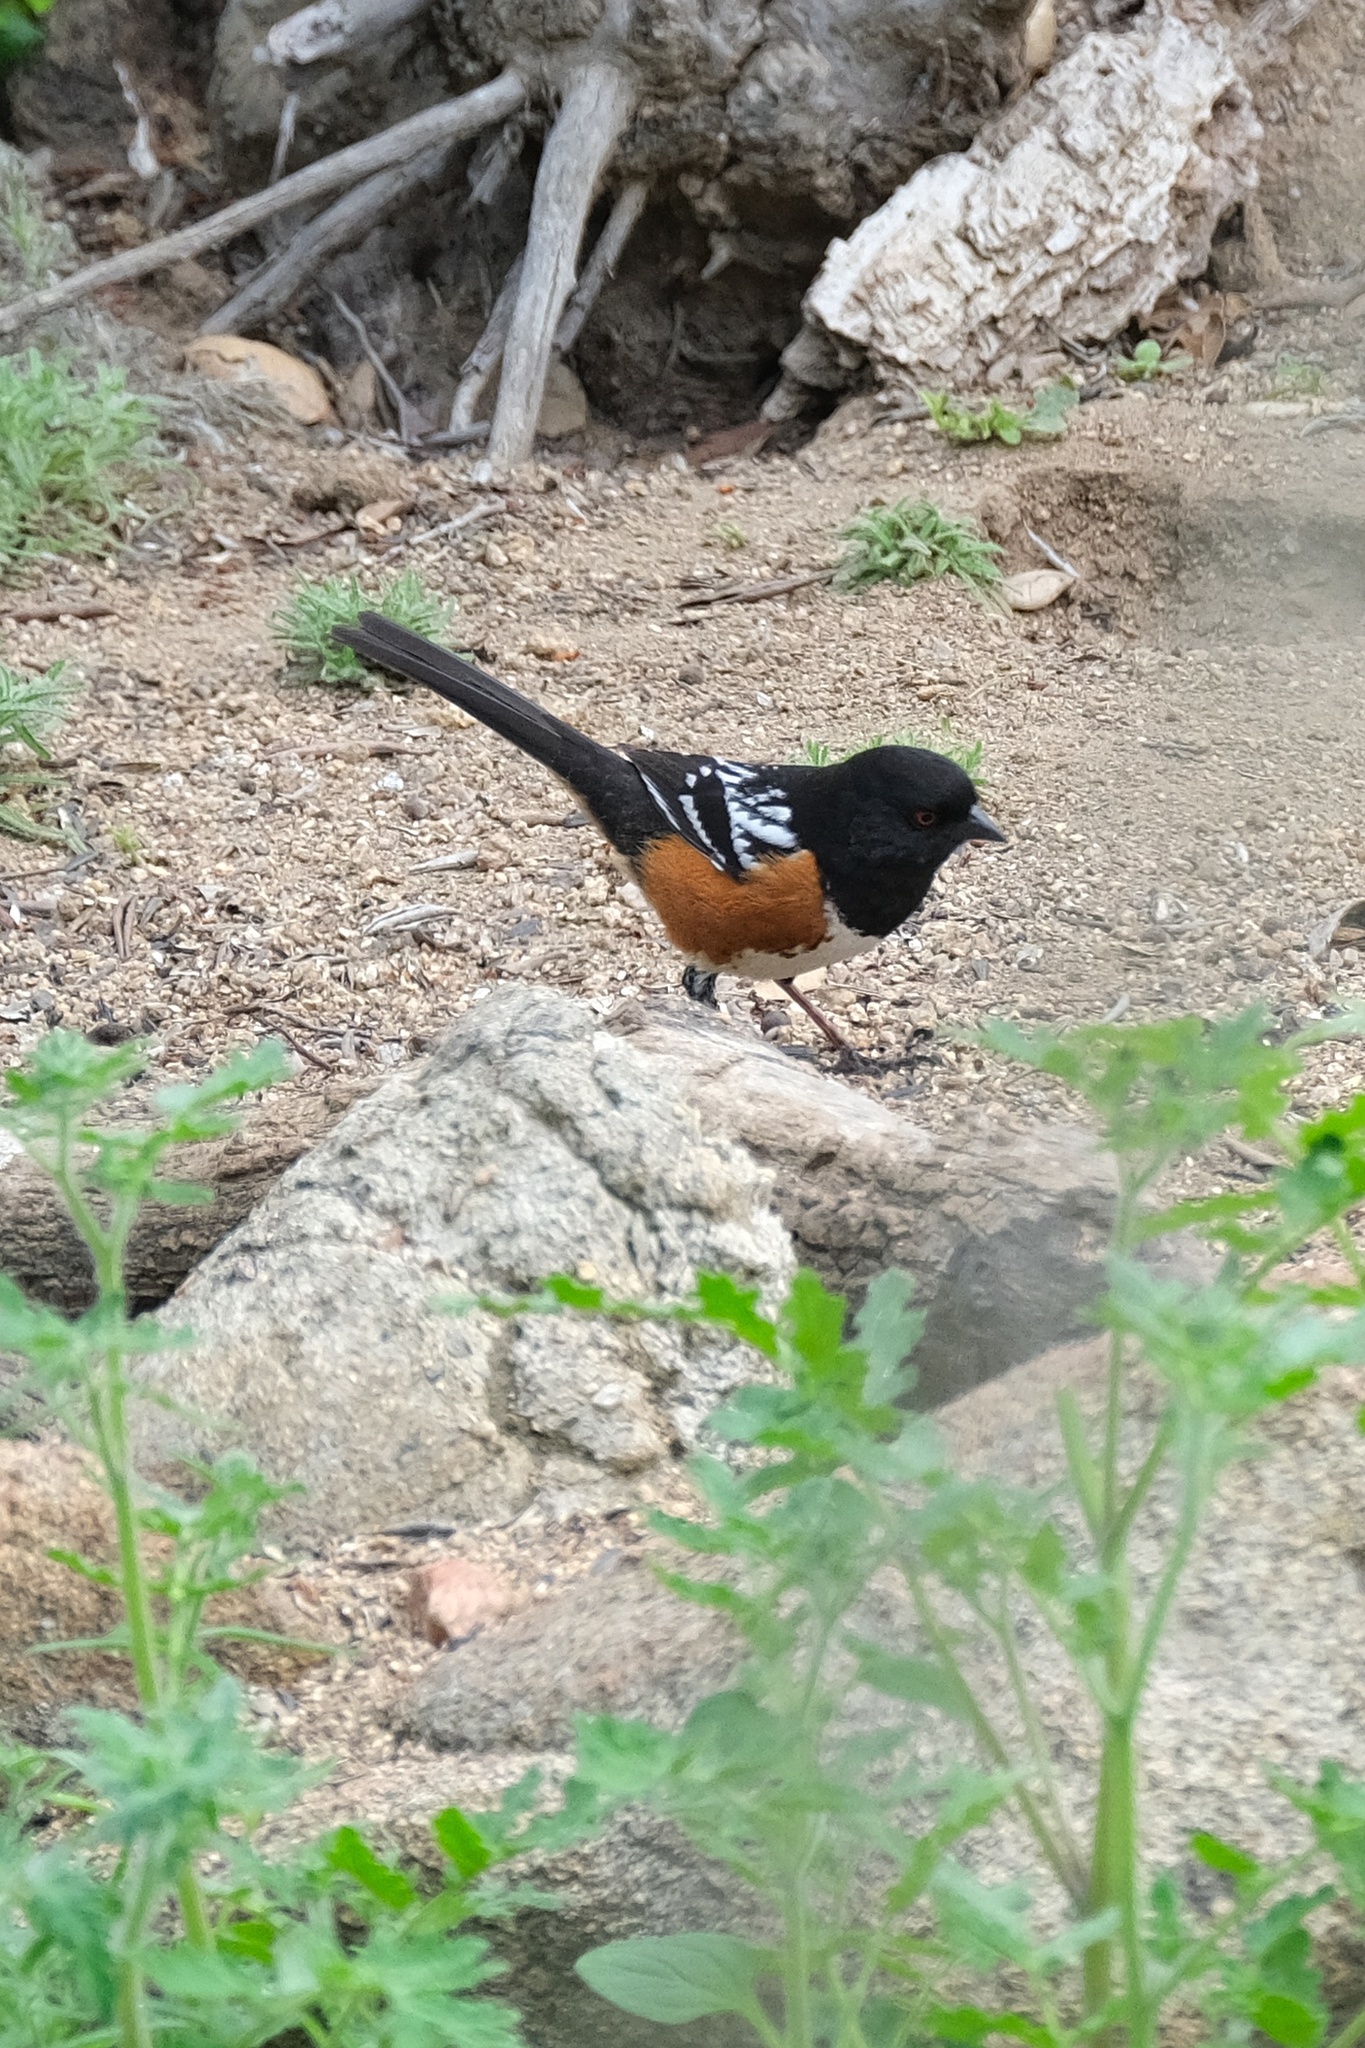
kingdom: Animalia
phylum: Chordata
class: Aves
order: Passeriformes
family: Passerellidae
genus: Pipilo
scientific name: Pipilo maculatus
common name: Spotted towhee
